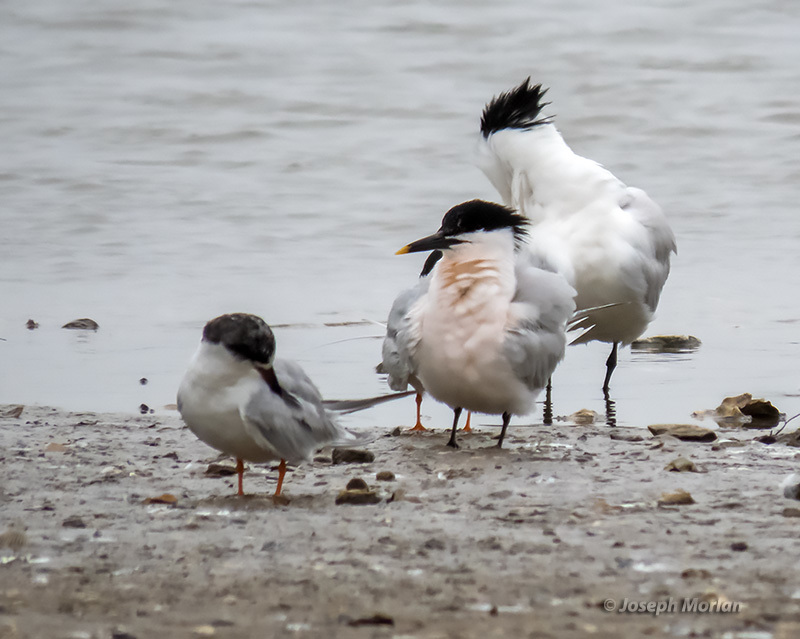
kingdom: Animalia
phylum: Chordata
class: Aves
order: Charadriiformes
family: Laridae
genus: Thalasseus
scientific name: Thalasseus sandvicensis
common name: Sandwich tern
